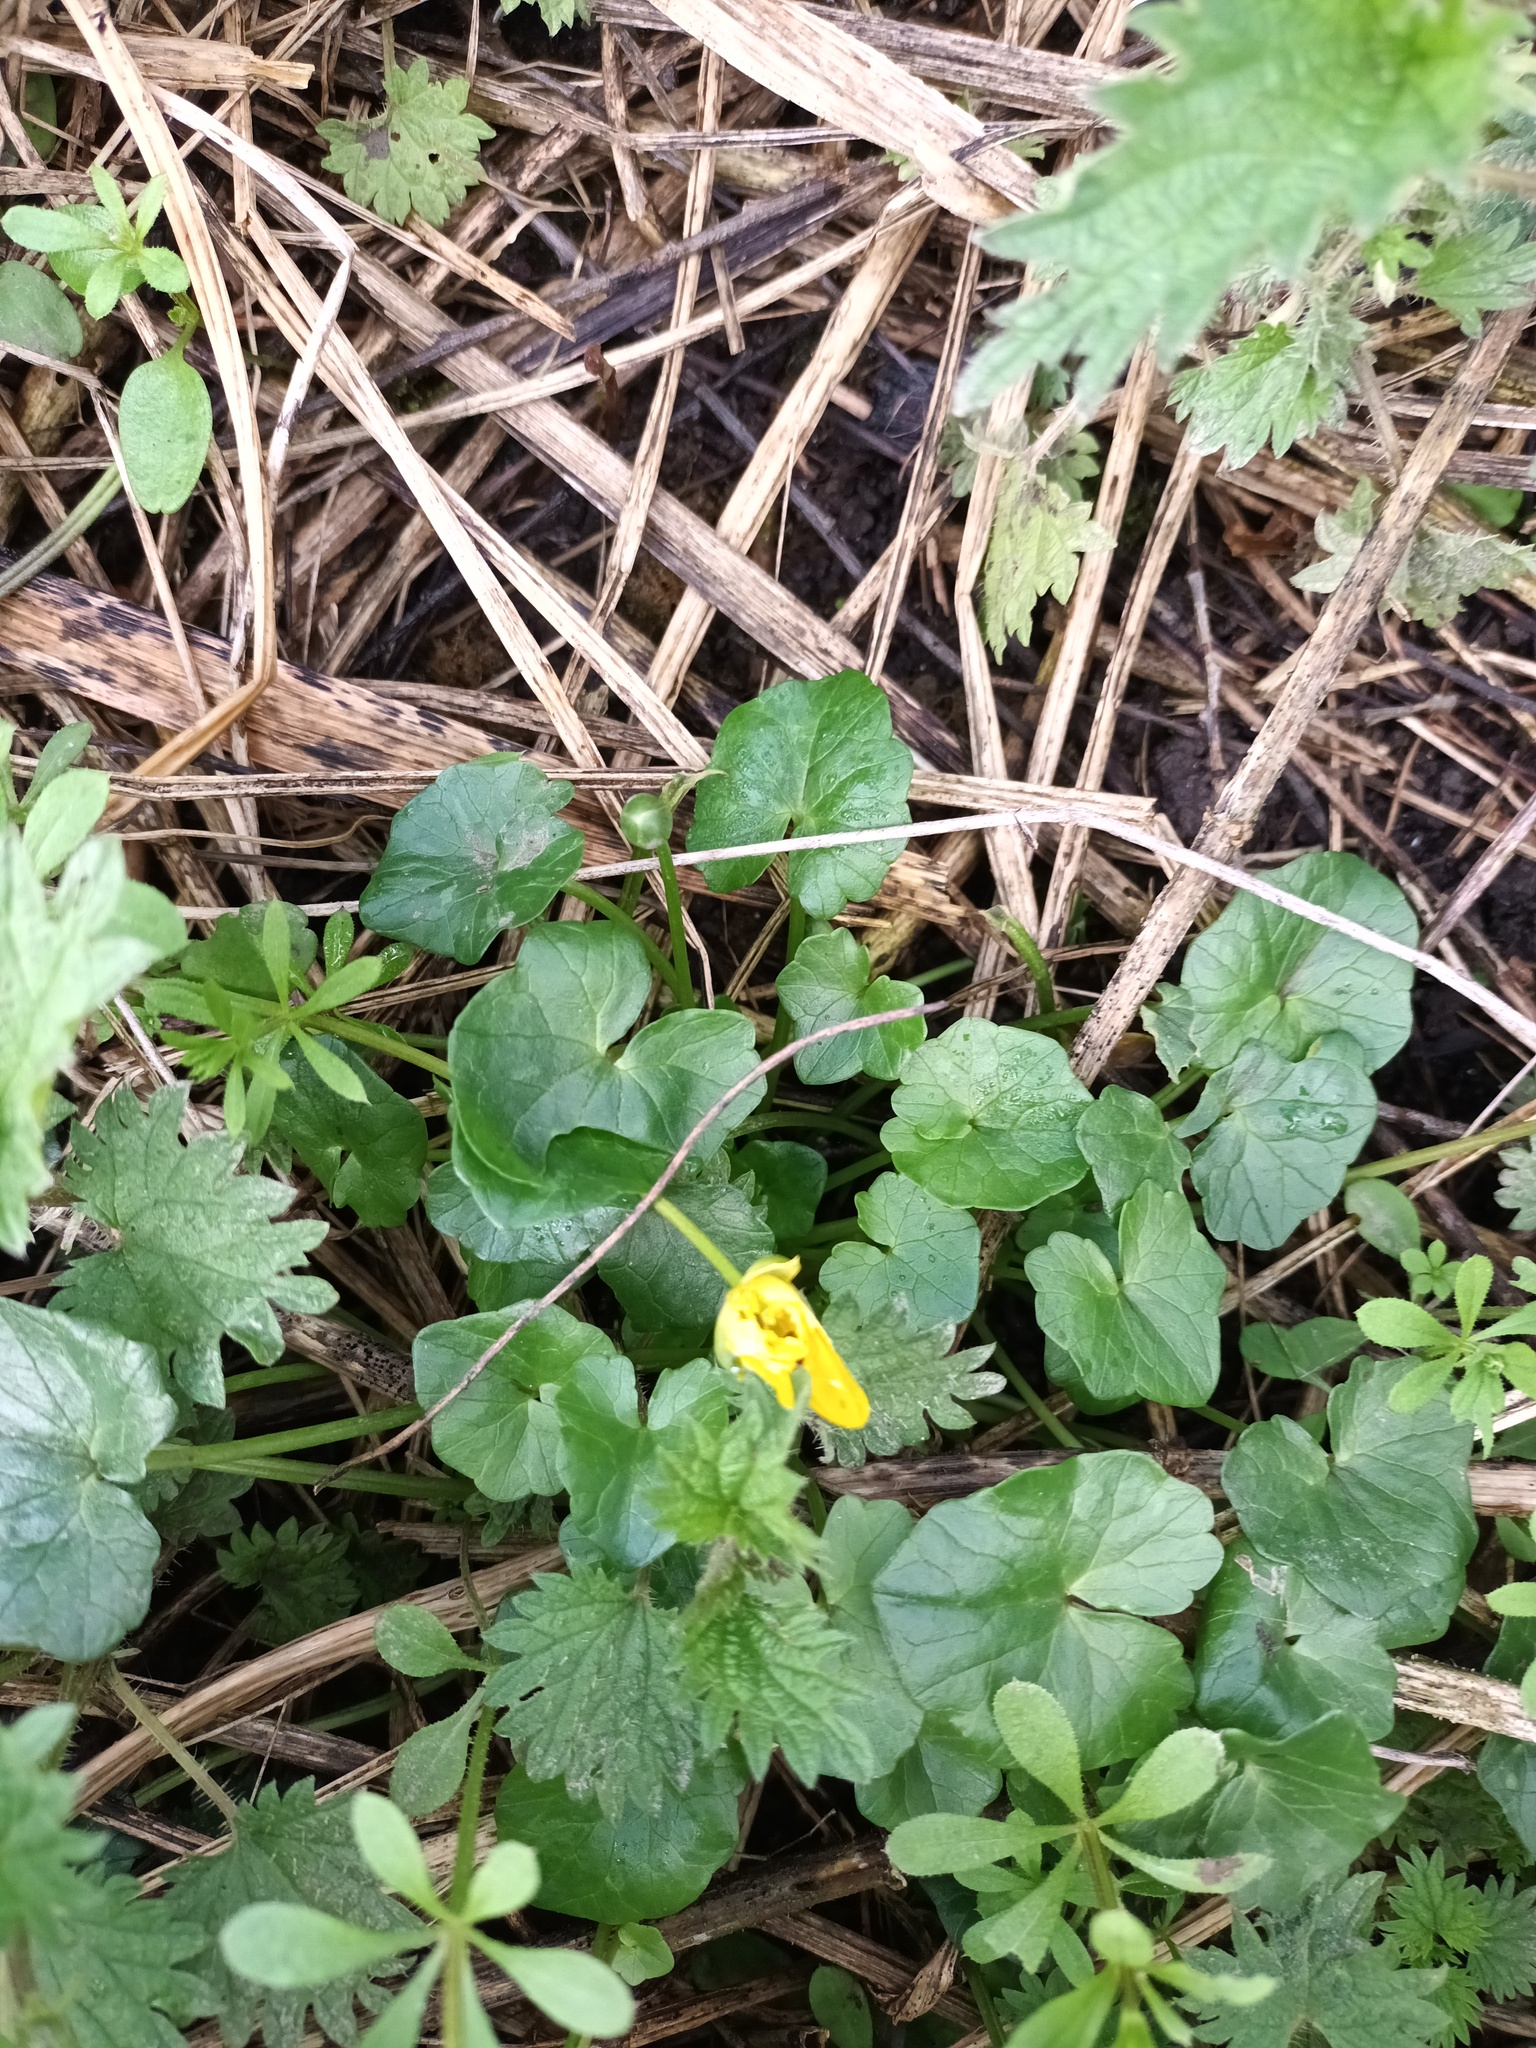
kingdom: Plantae
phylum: Tracheophyta
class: Magnoliopsida
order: Ranunculales
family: Ranunculaceae
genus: Ficaria
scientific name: Ficaria verna
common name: Lesser celandine
